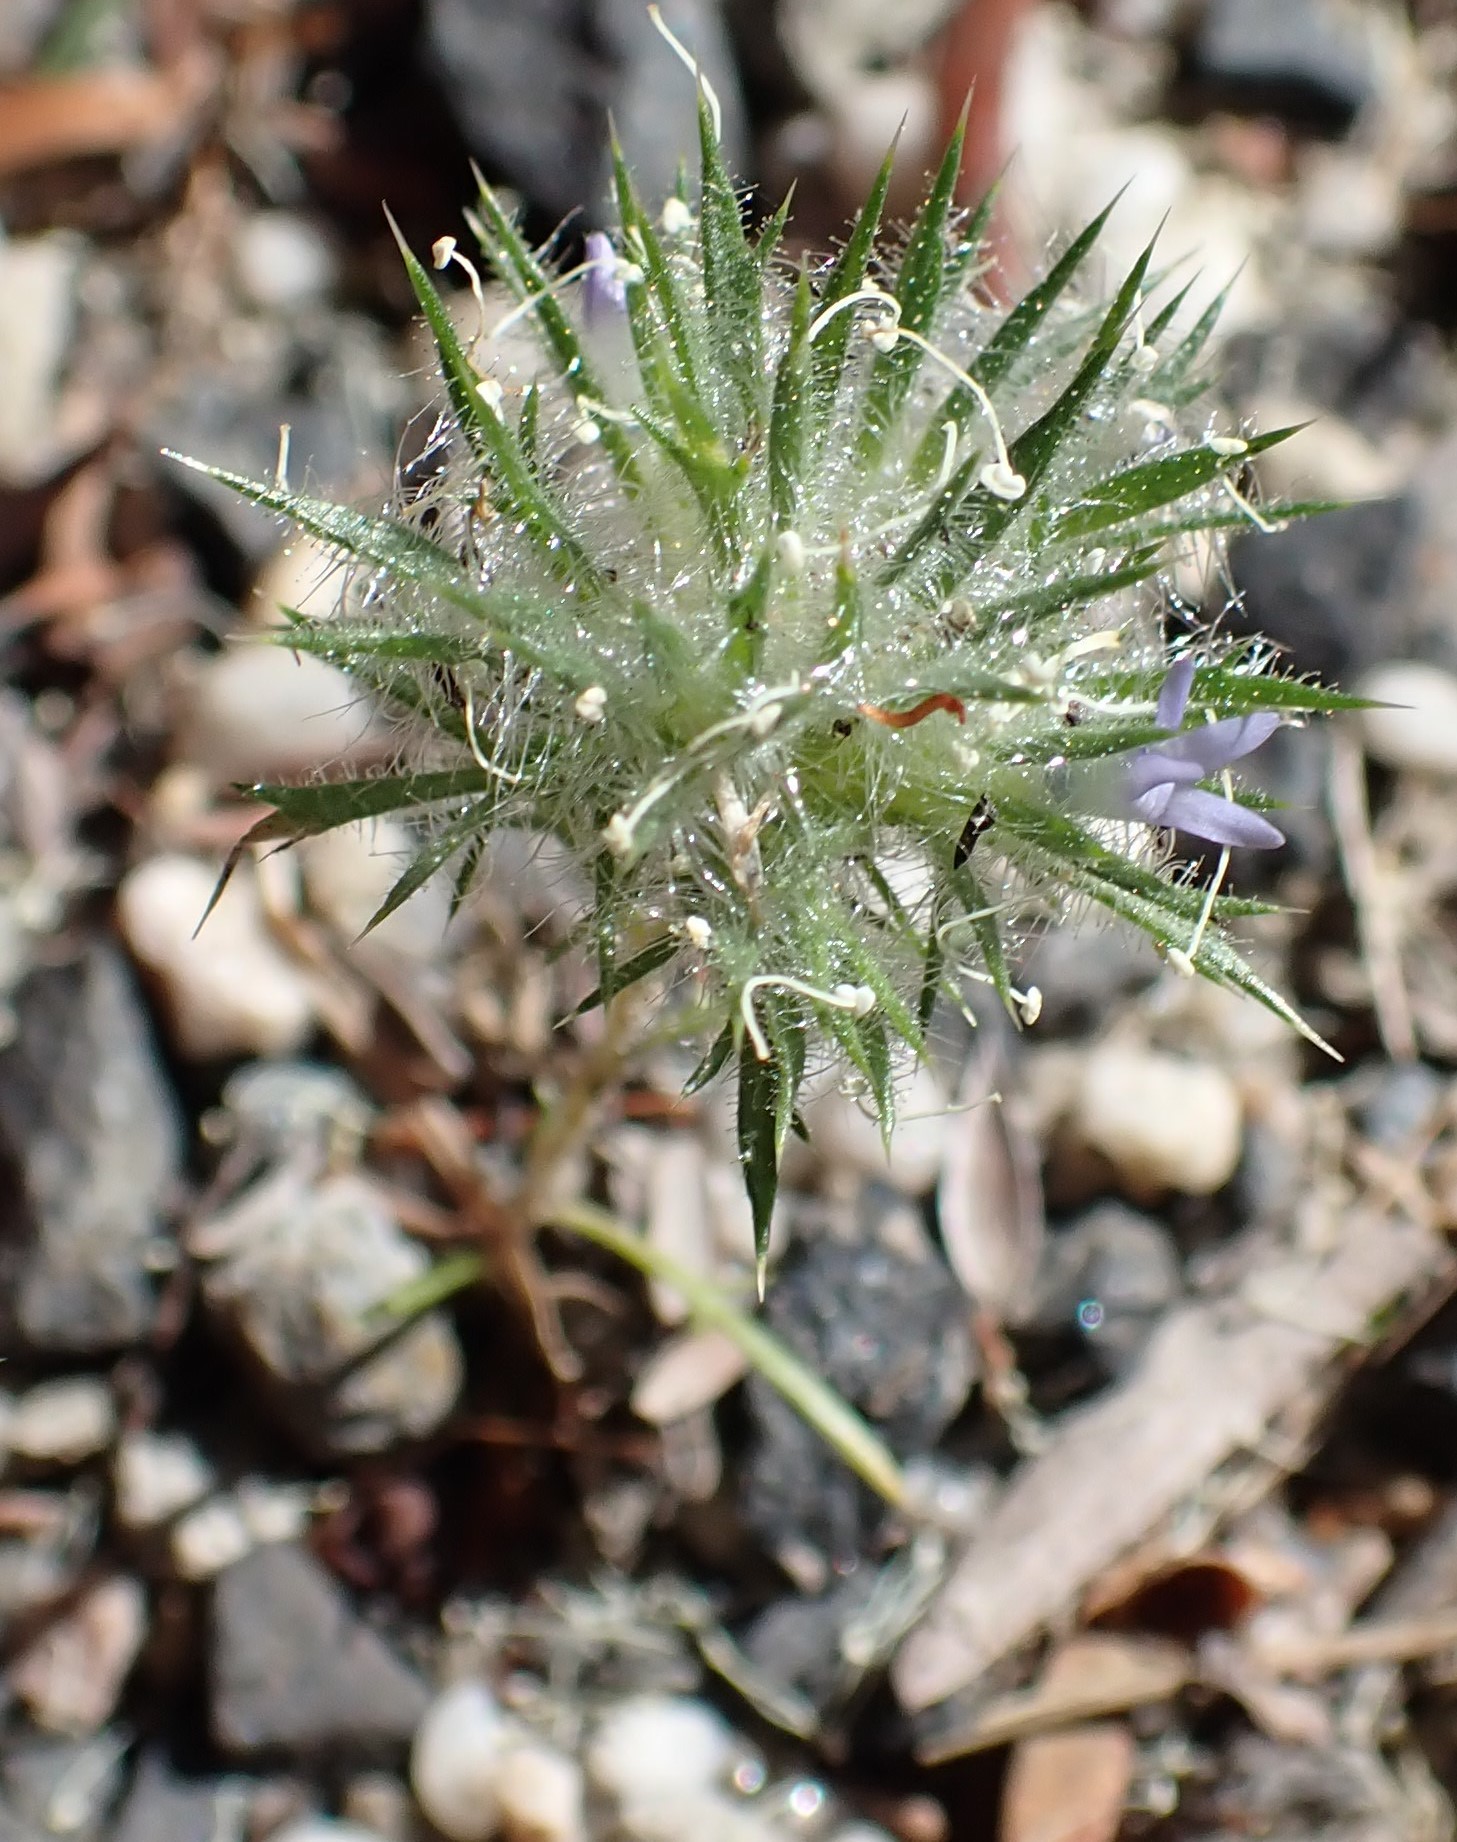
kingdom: Plantae
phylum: Tracheophyta
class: Magnoliopsida
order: Ericales
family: Polemoniaceae
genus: Navarretia
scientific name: Navarretia squarrosa
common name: Skunkweed
